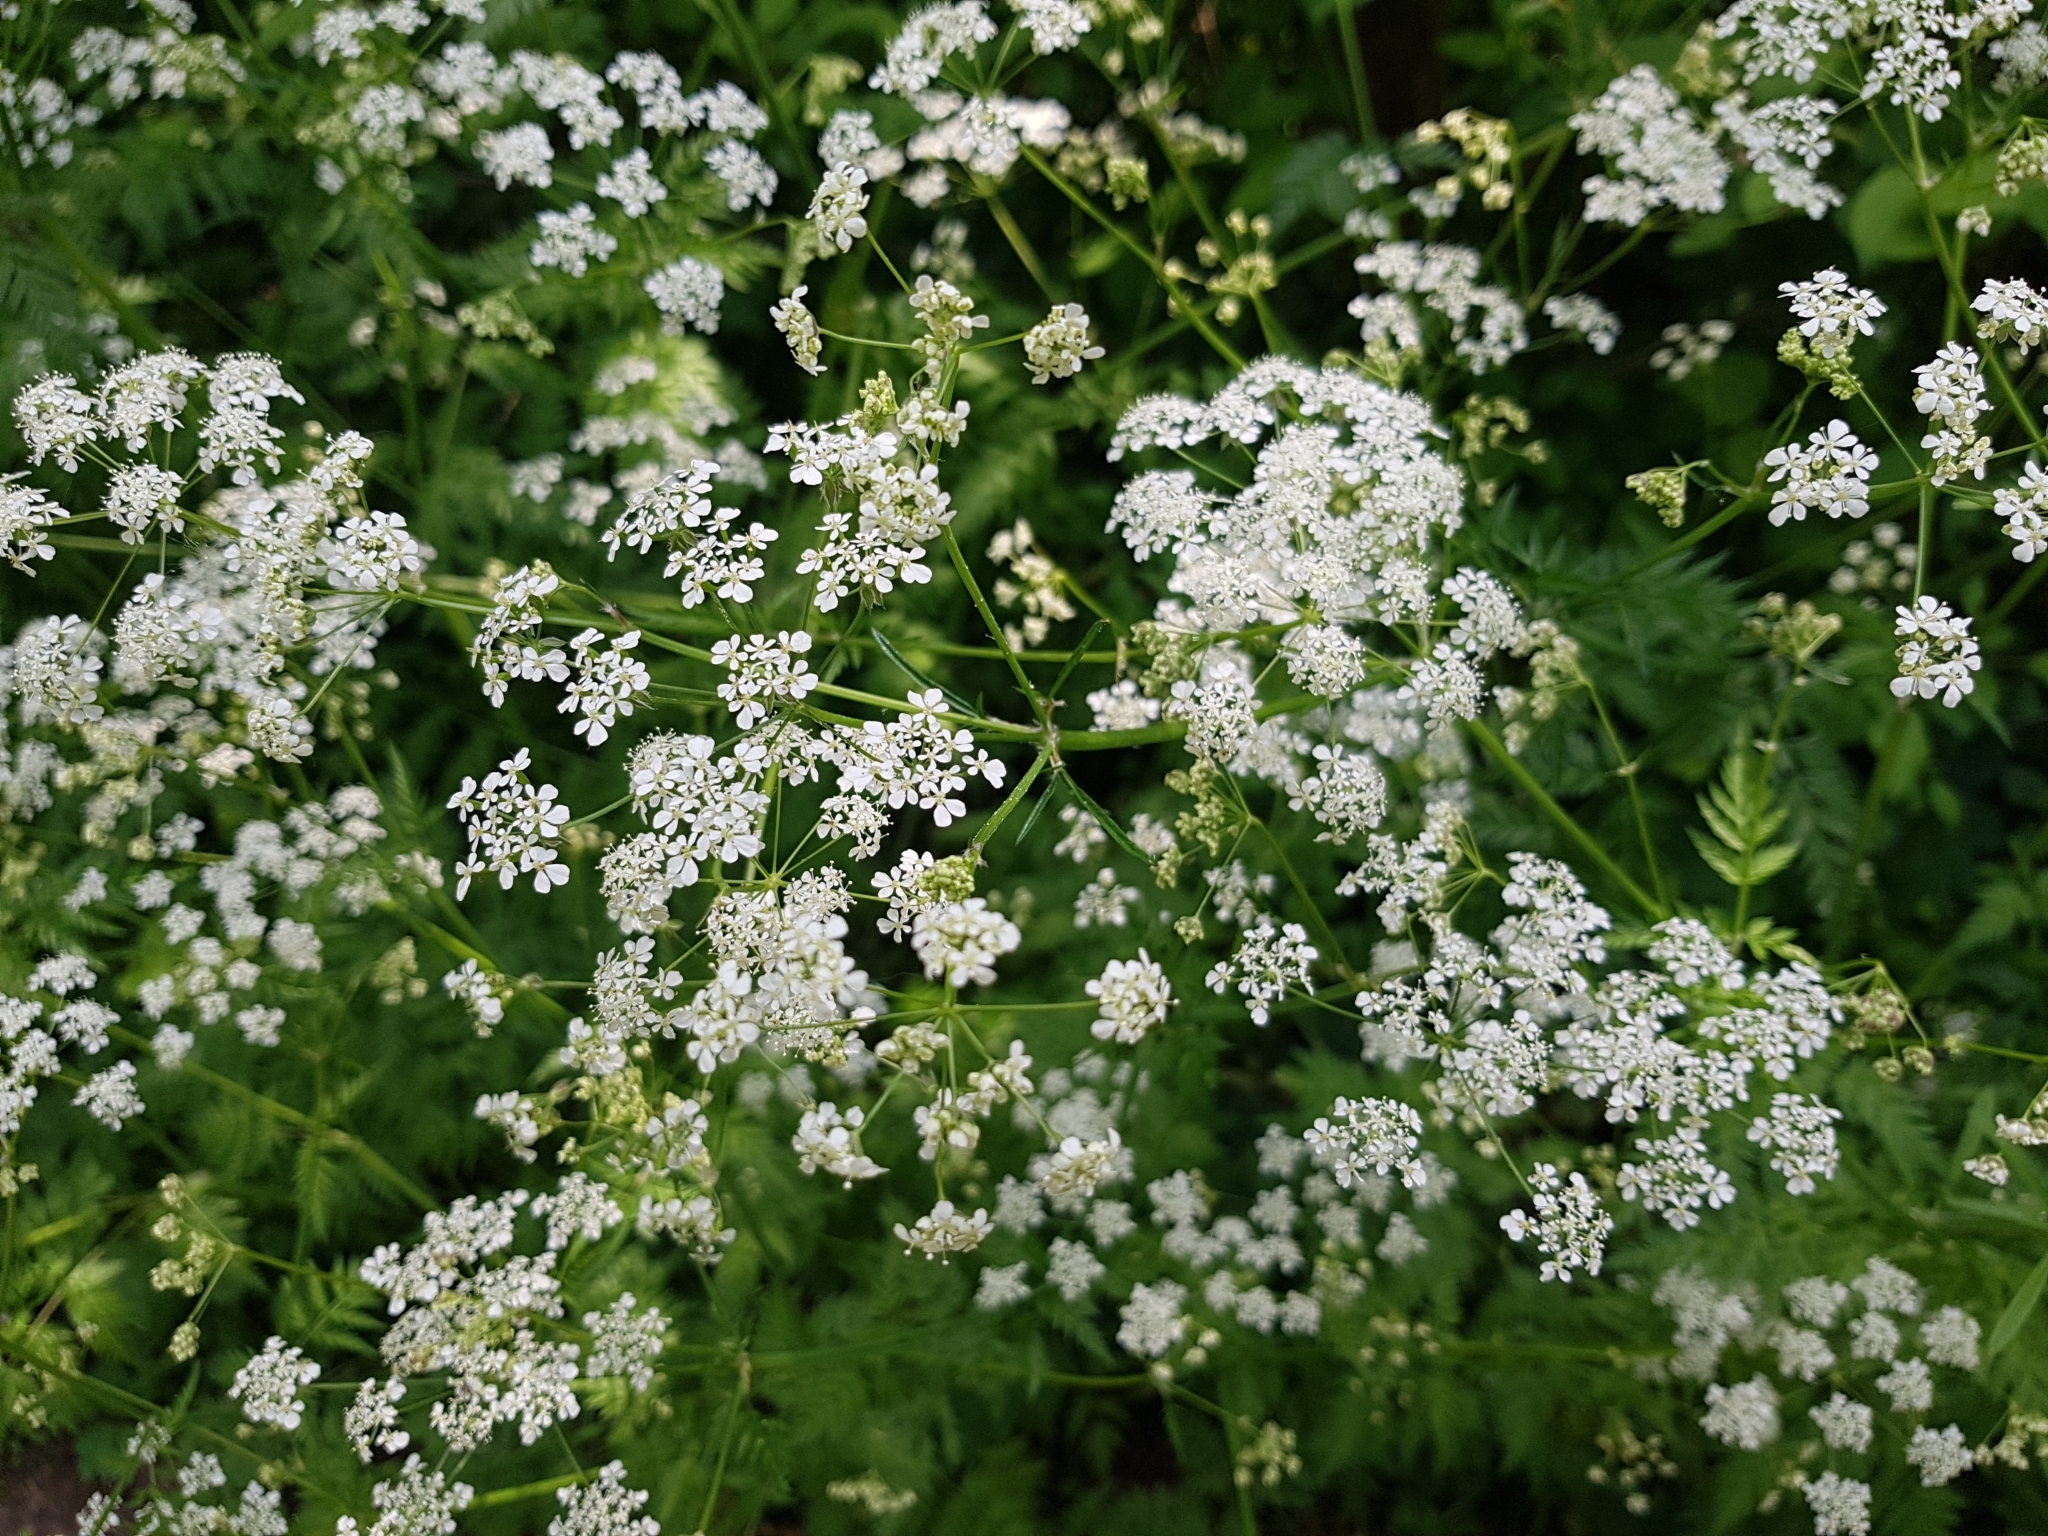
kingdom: Plantae
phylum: Tracheophyta
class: Magnoliopsida
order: Apiales
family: Apiaceae
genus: Anthriscus
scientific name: Anthriscus sylvestris
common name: Cow parsley
